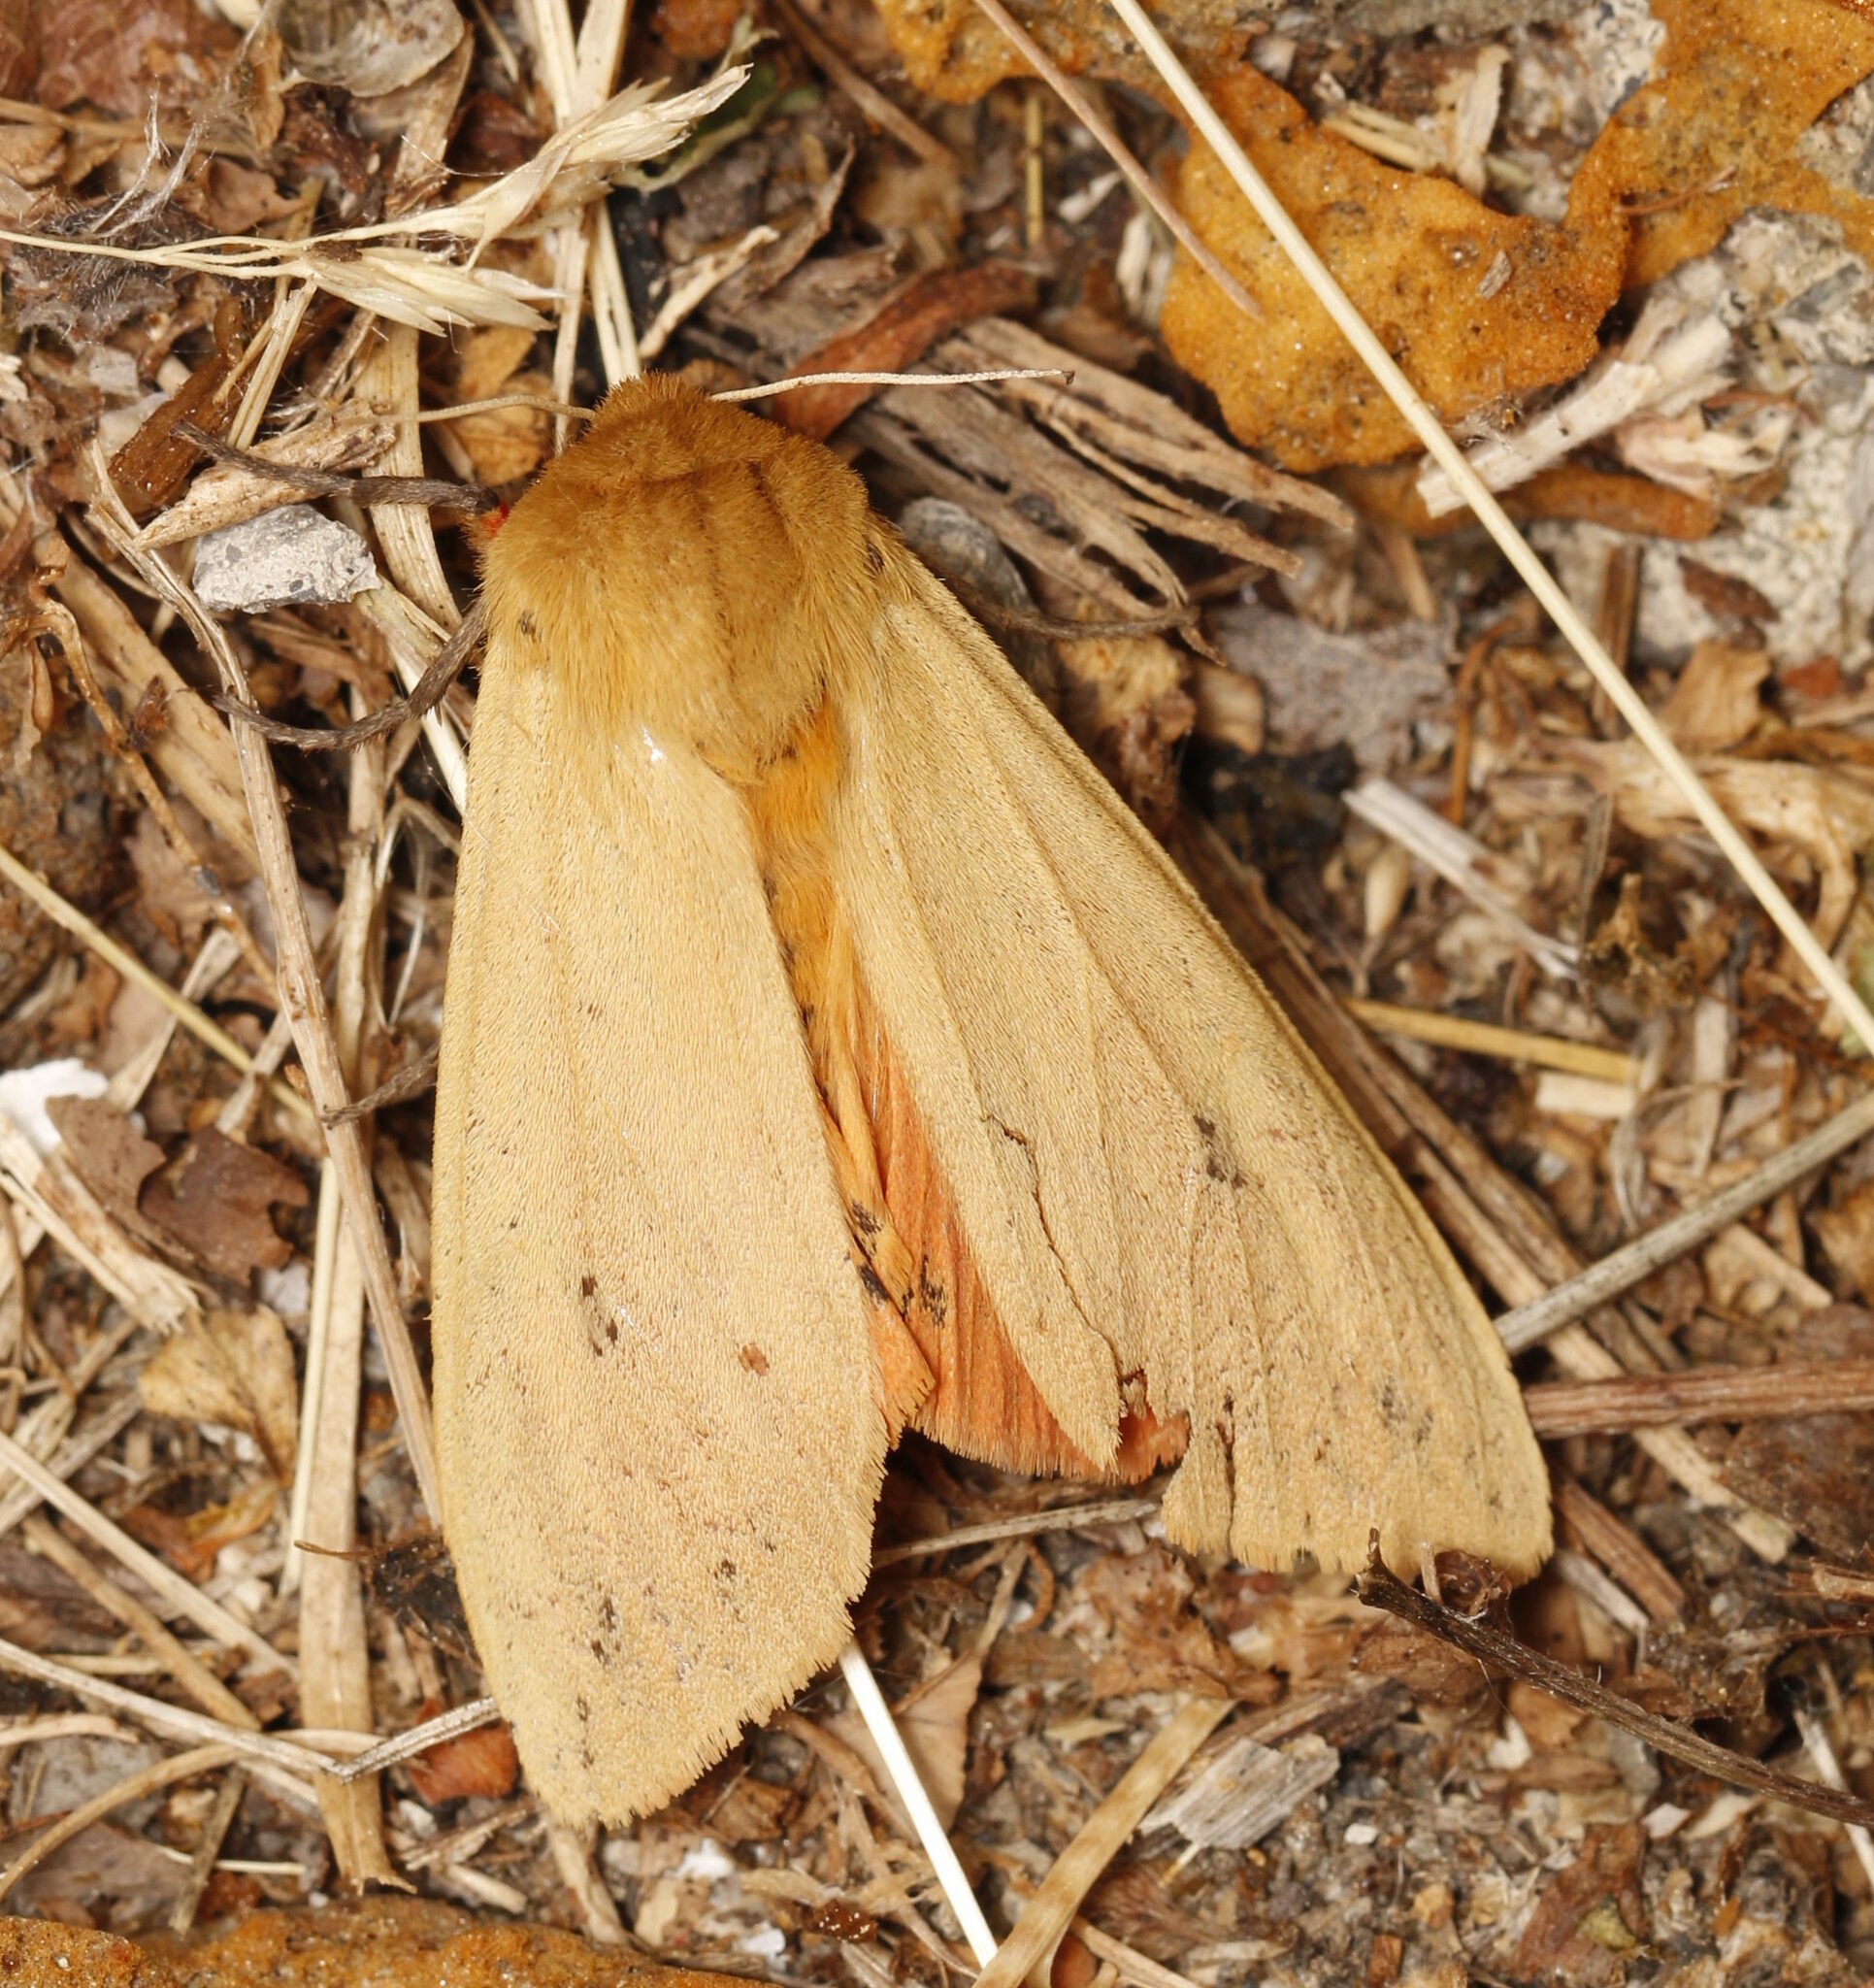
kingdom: Animalia
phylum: Arthropoda
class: Insecta
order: Lepidoptera
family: Erebidae
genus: Pyrrharctia
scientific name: Pyrrharctia isabella
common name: Isabella tiger moth
